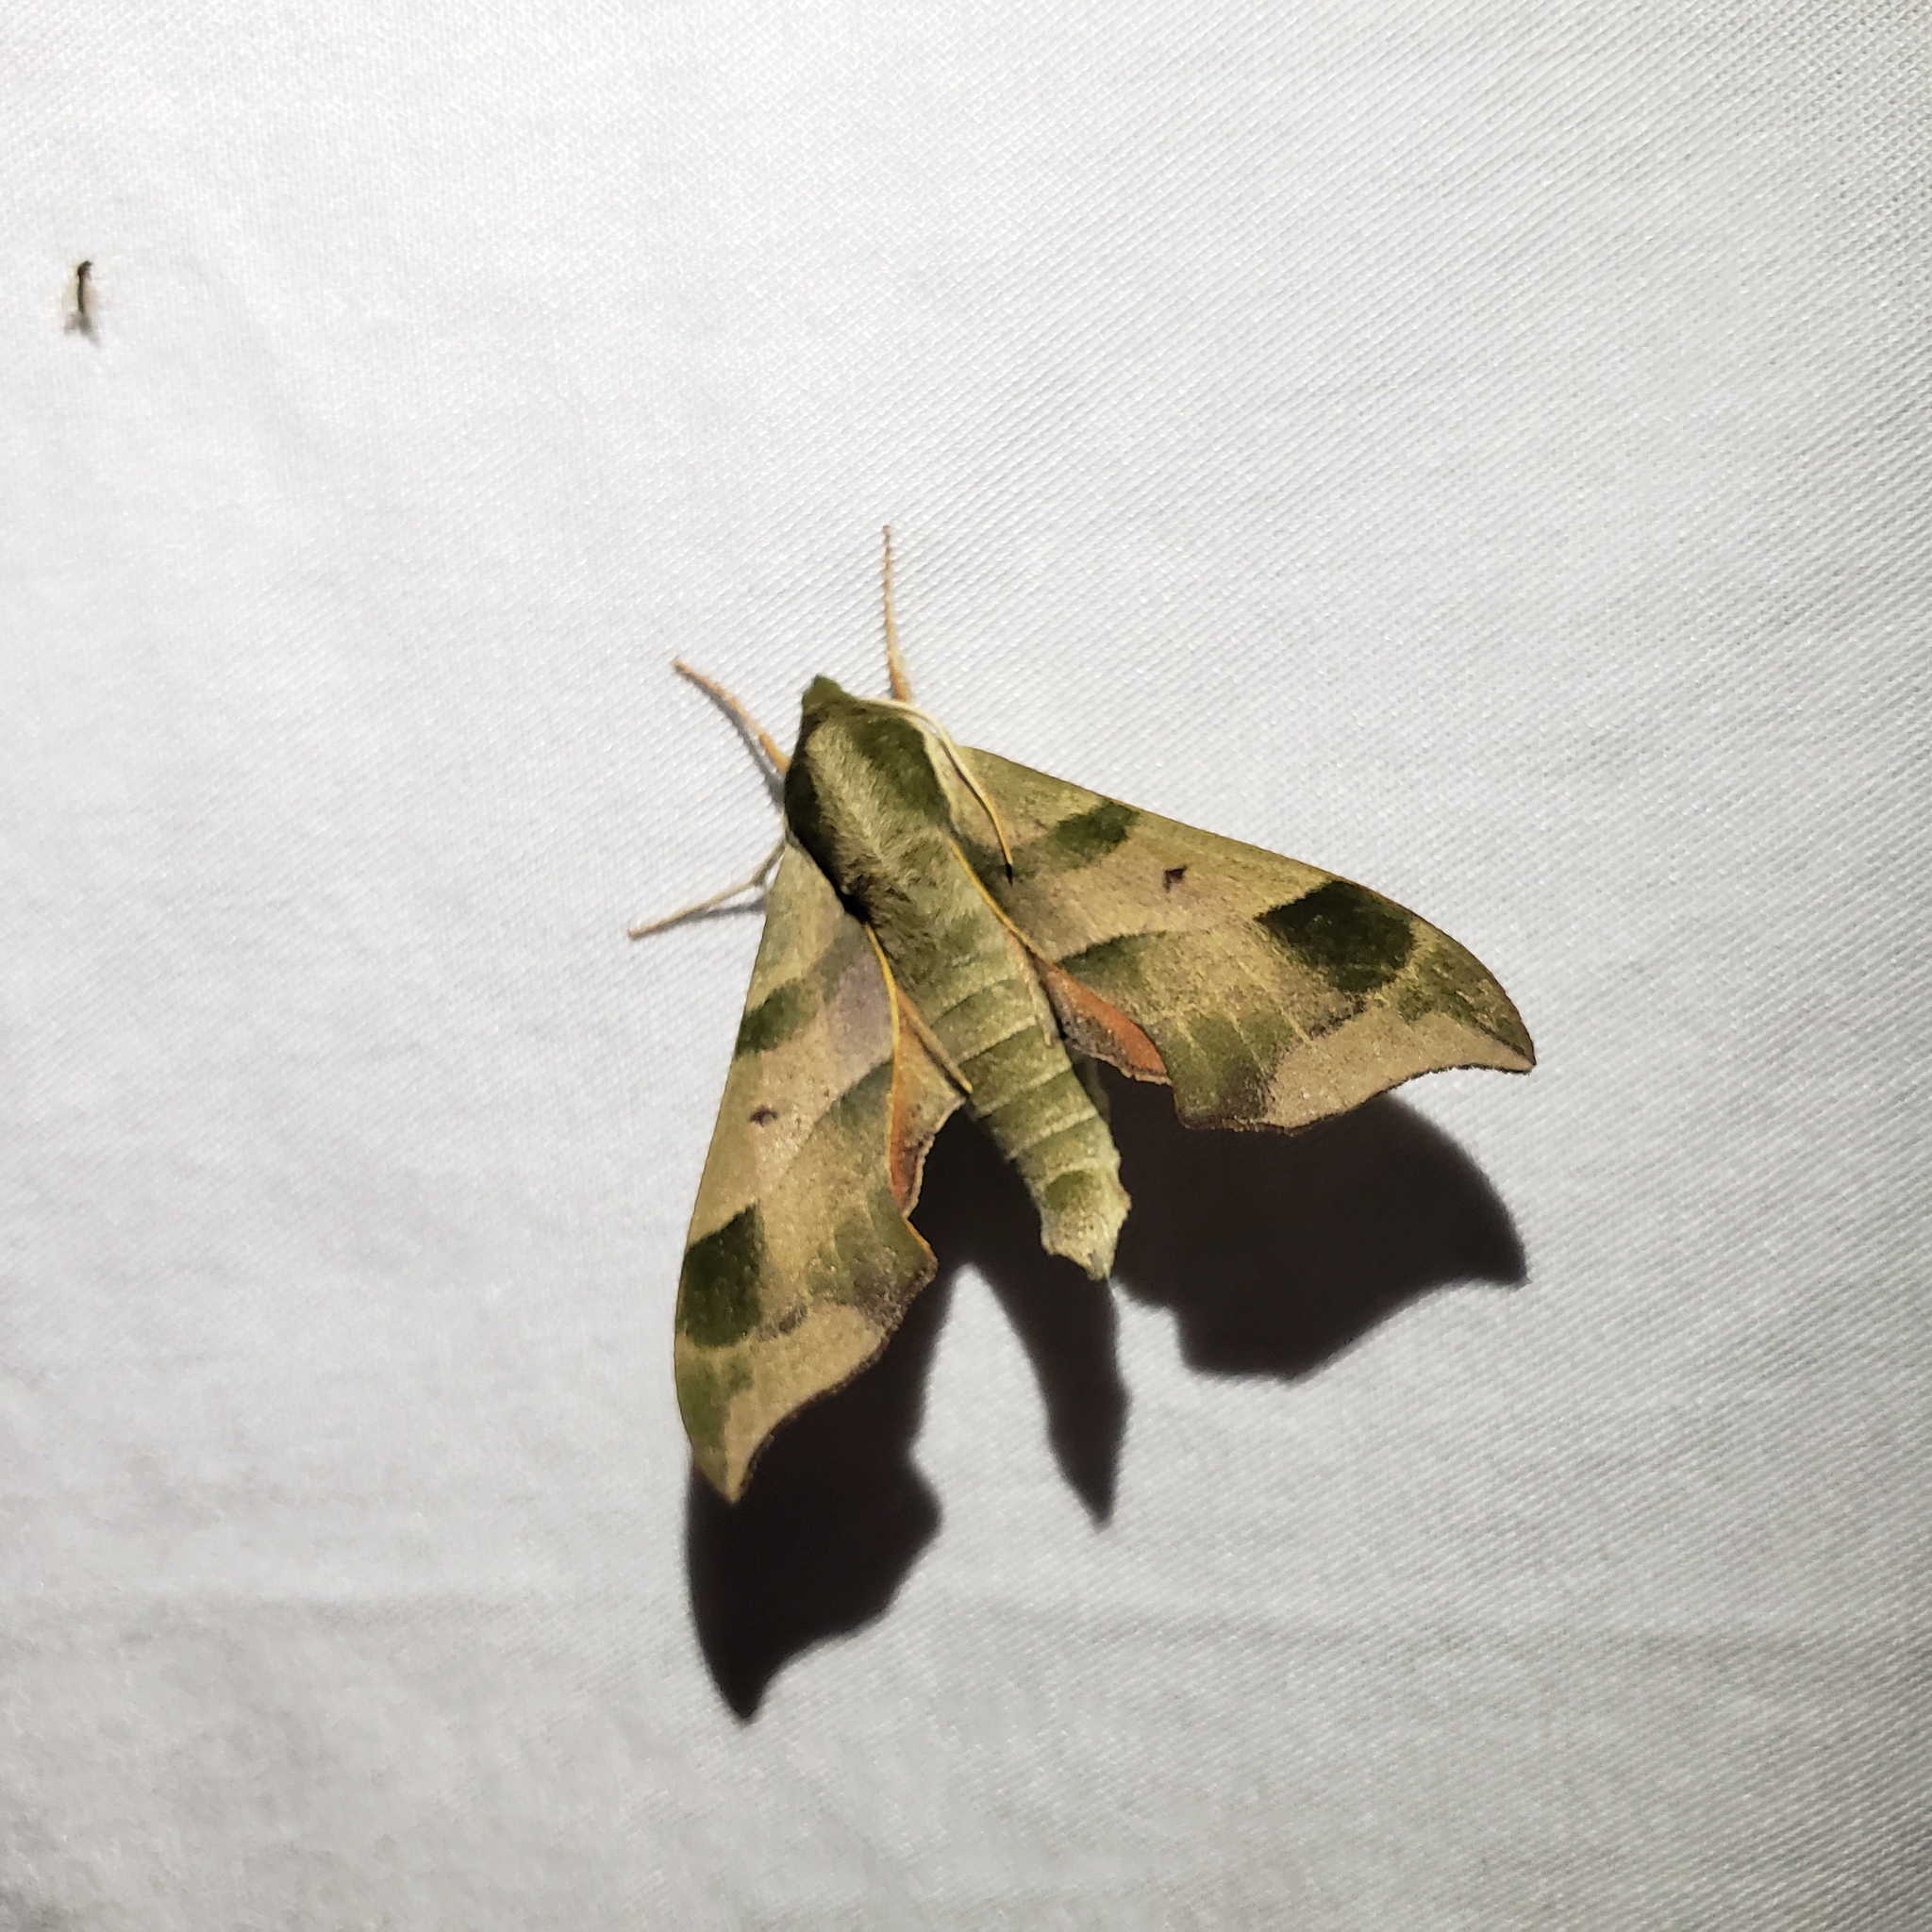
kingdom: Animalia
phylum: Arthropoda
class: Insecta
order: Lepidoptera
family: Sphingidae
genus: Darapsa
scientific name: Darapsa myron
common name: Hog sphinx
